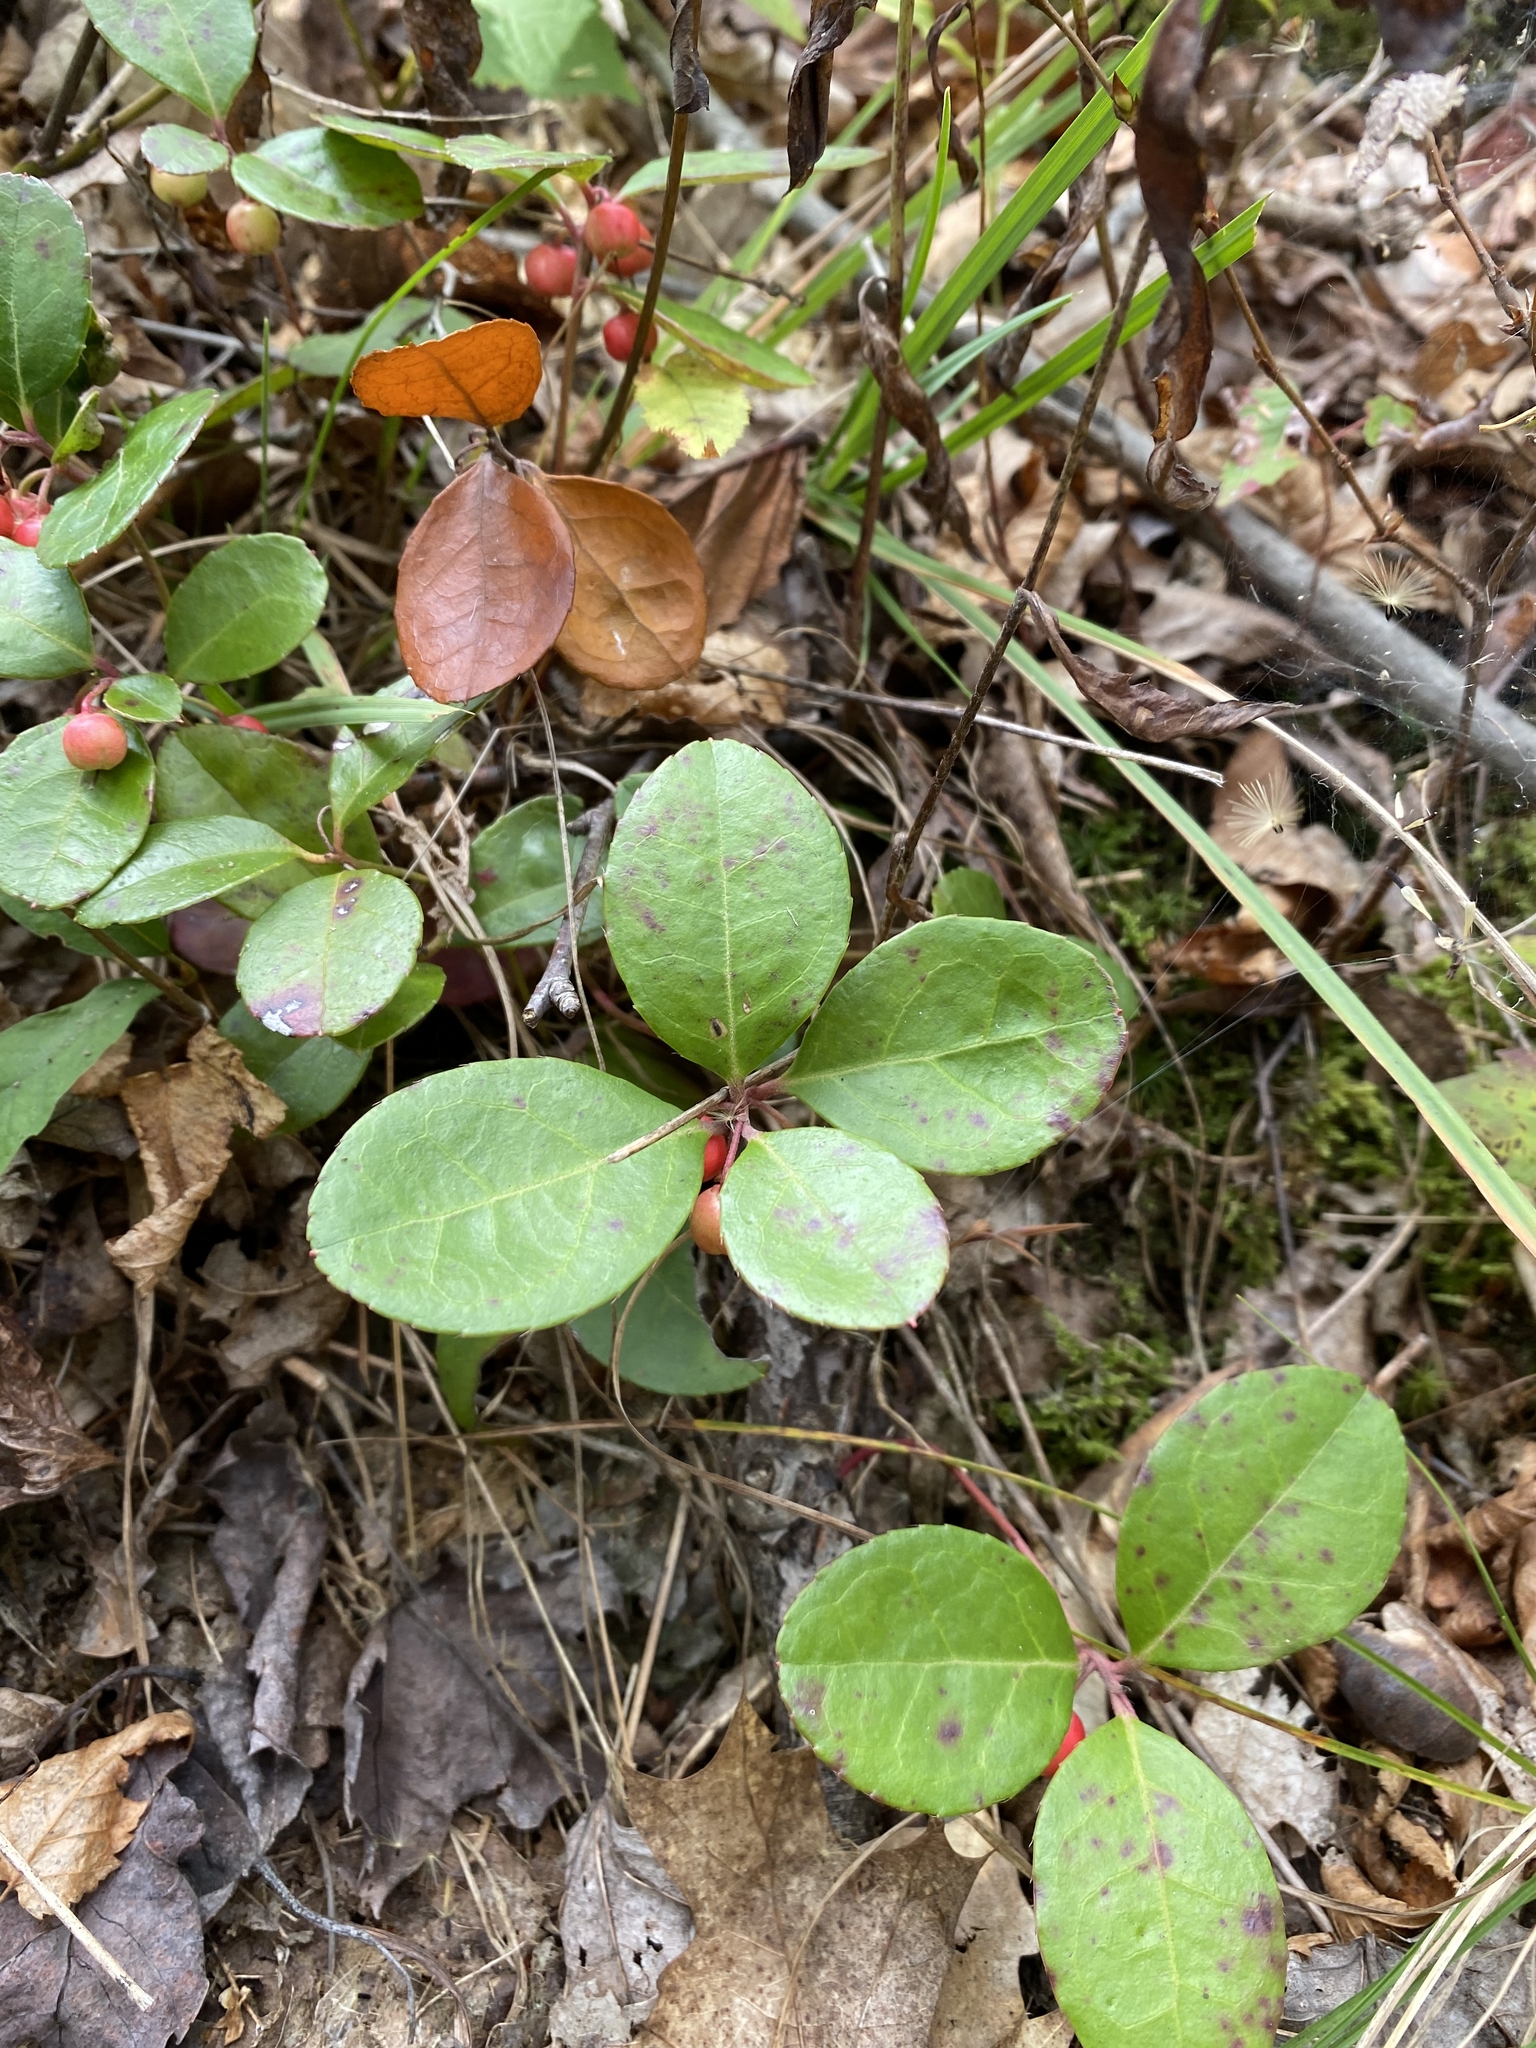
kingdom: Plantae
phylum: Tracheophyta
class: Magnoliopsida
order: Ericales
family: Ericaceae
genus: Gaultheria
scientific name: Gaultheria procumbens
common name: Checkerberry
